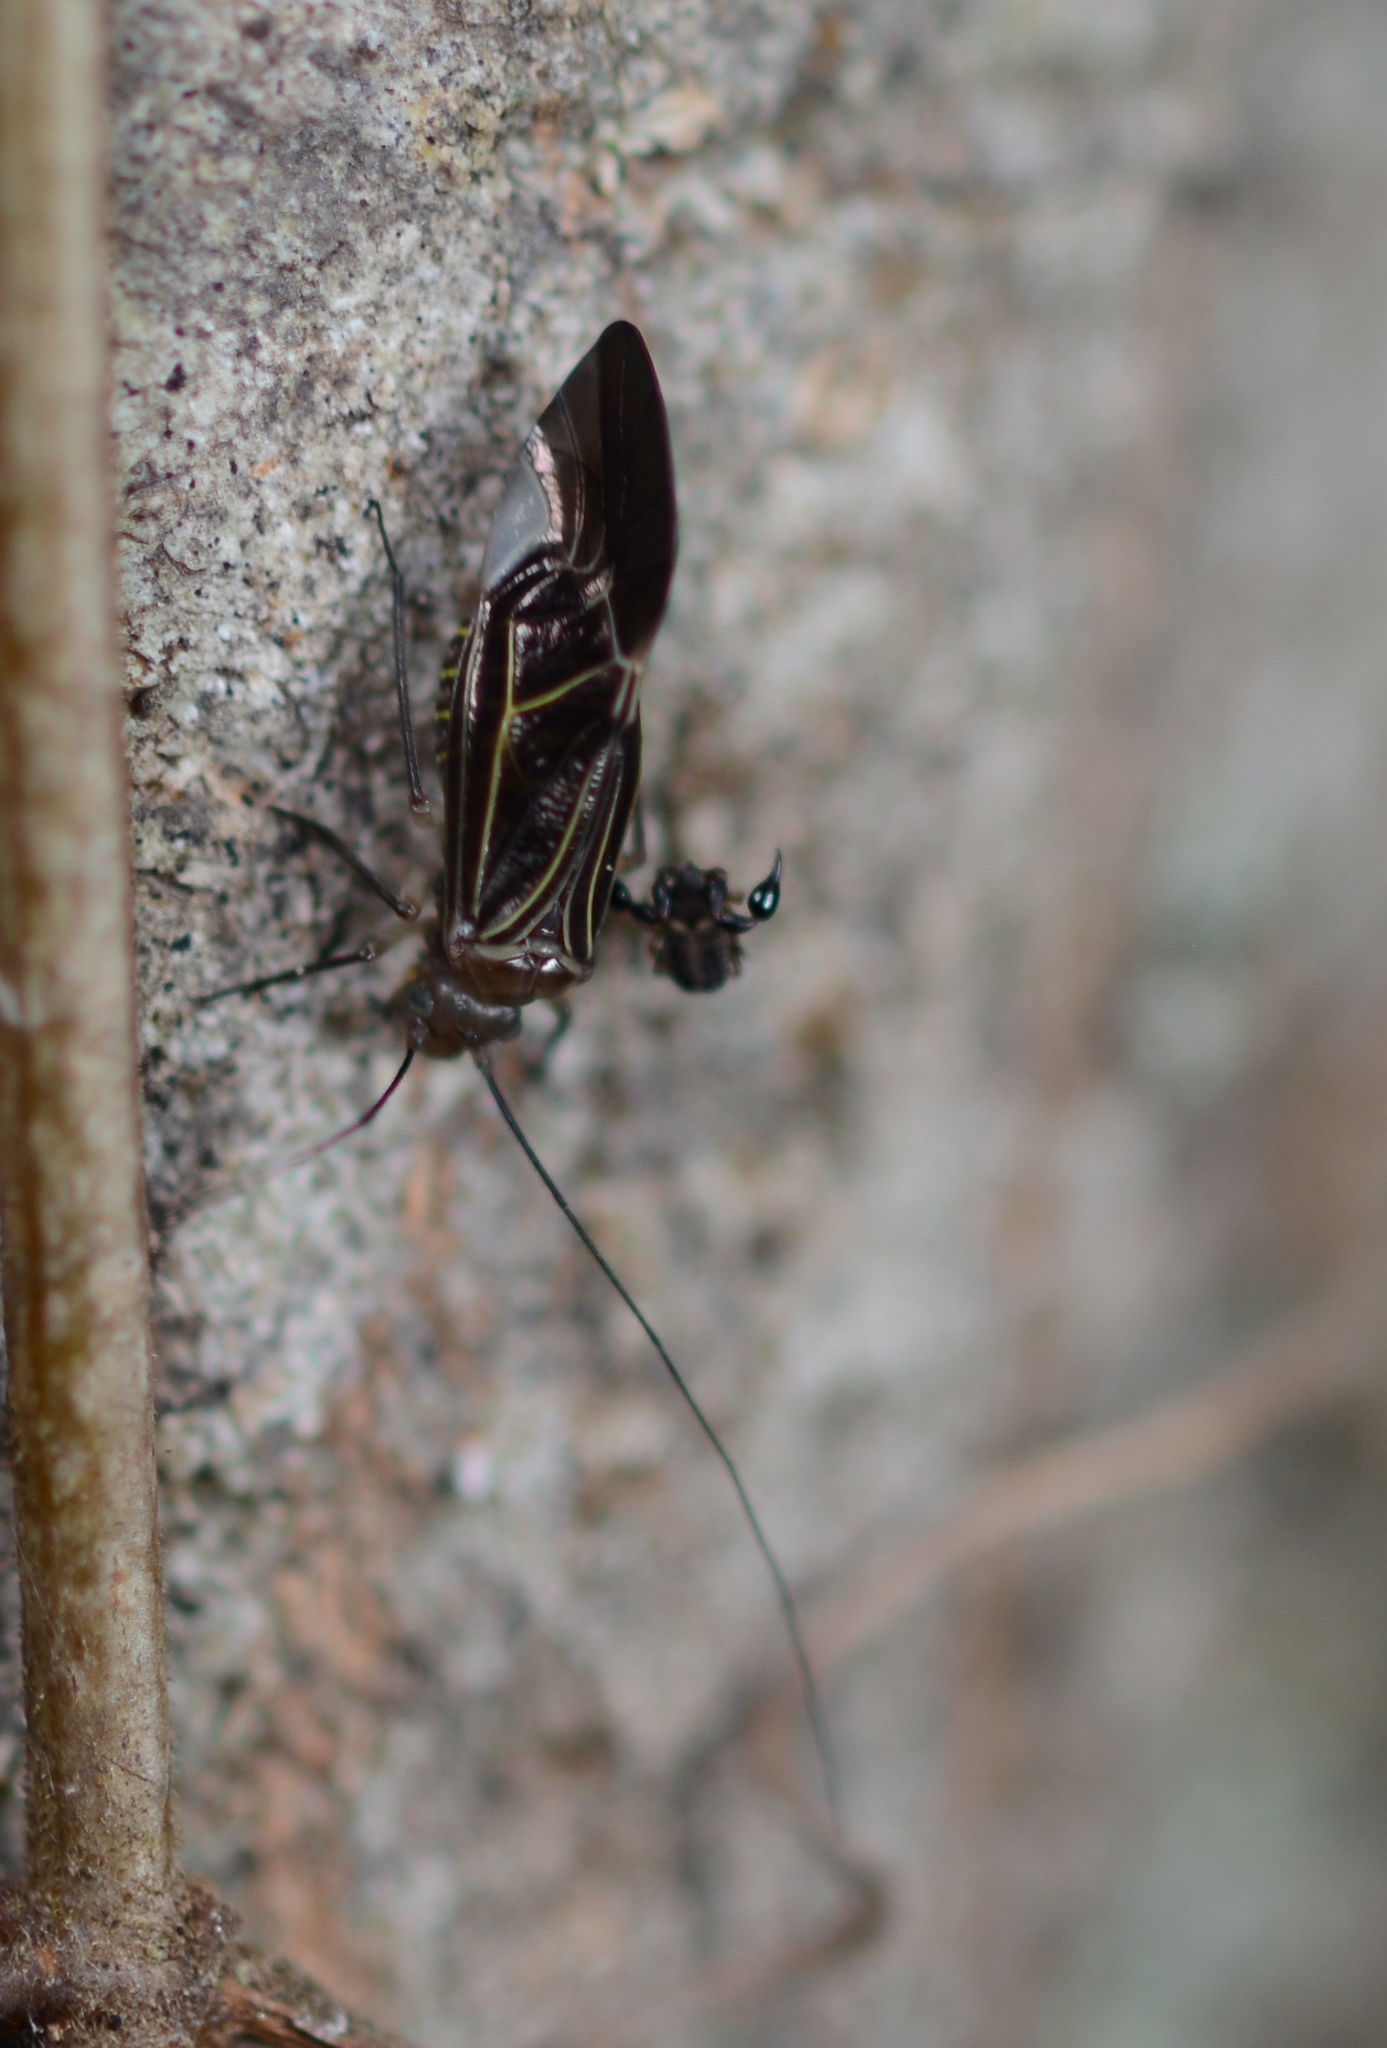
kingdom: Animalia
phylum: Arthropoda
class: Insecta
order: Psocodea
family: Psocidae
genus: Cerastipsocus
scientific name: Cerastipsocus venosus
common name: Tree cattle
